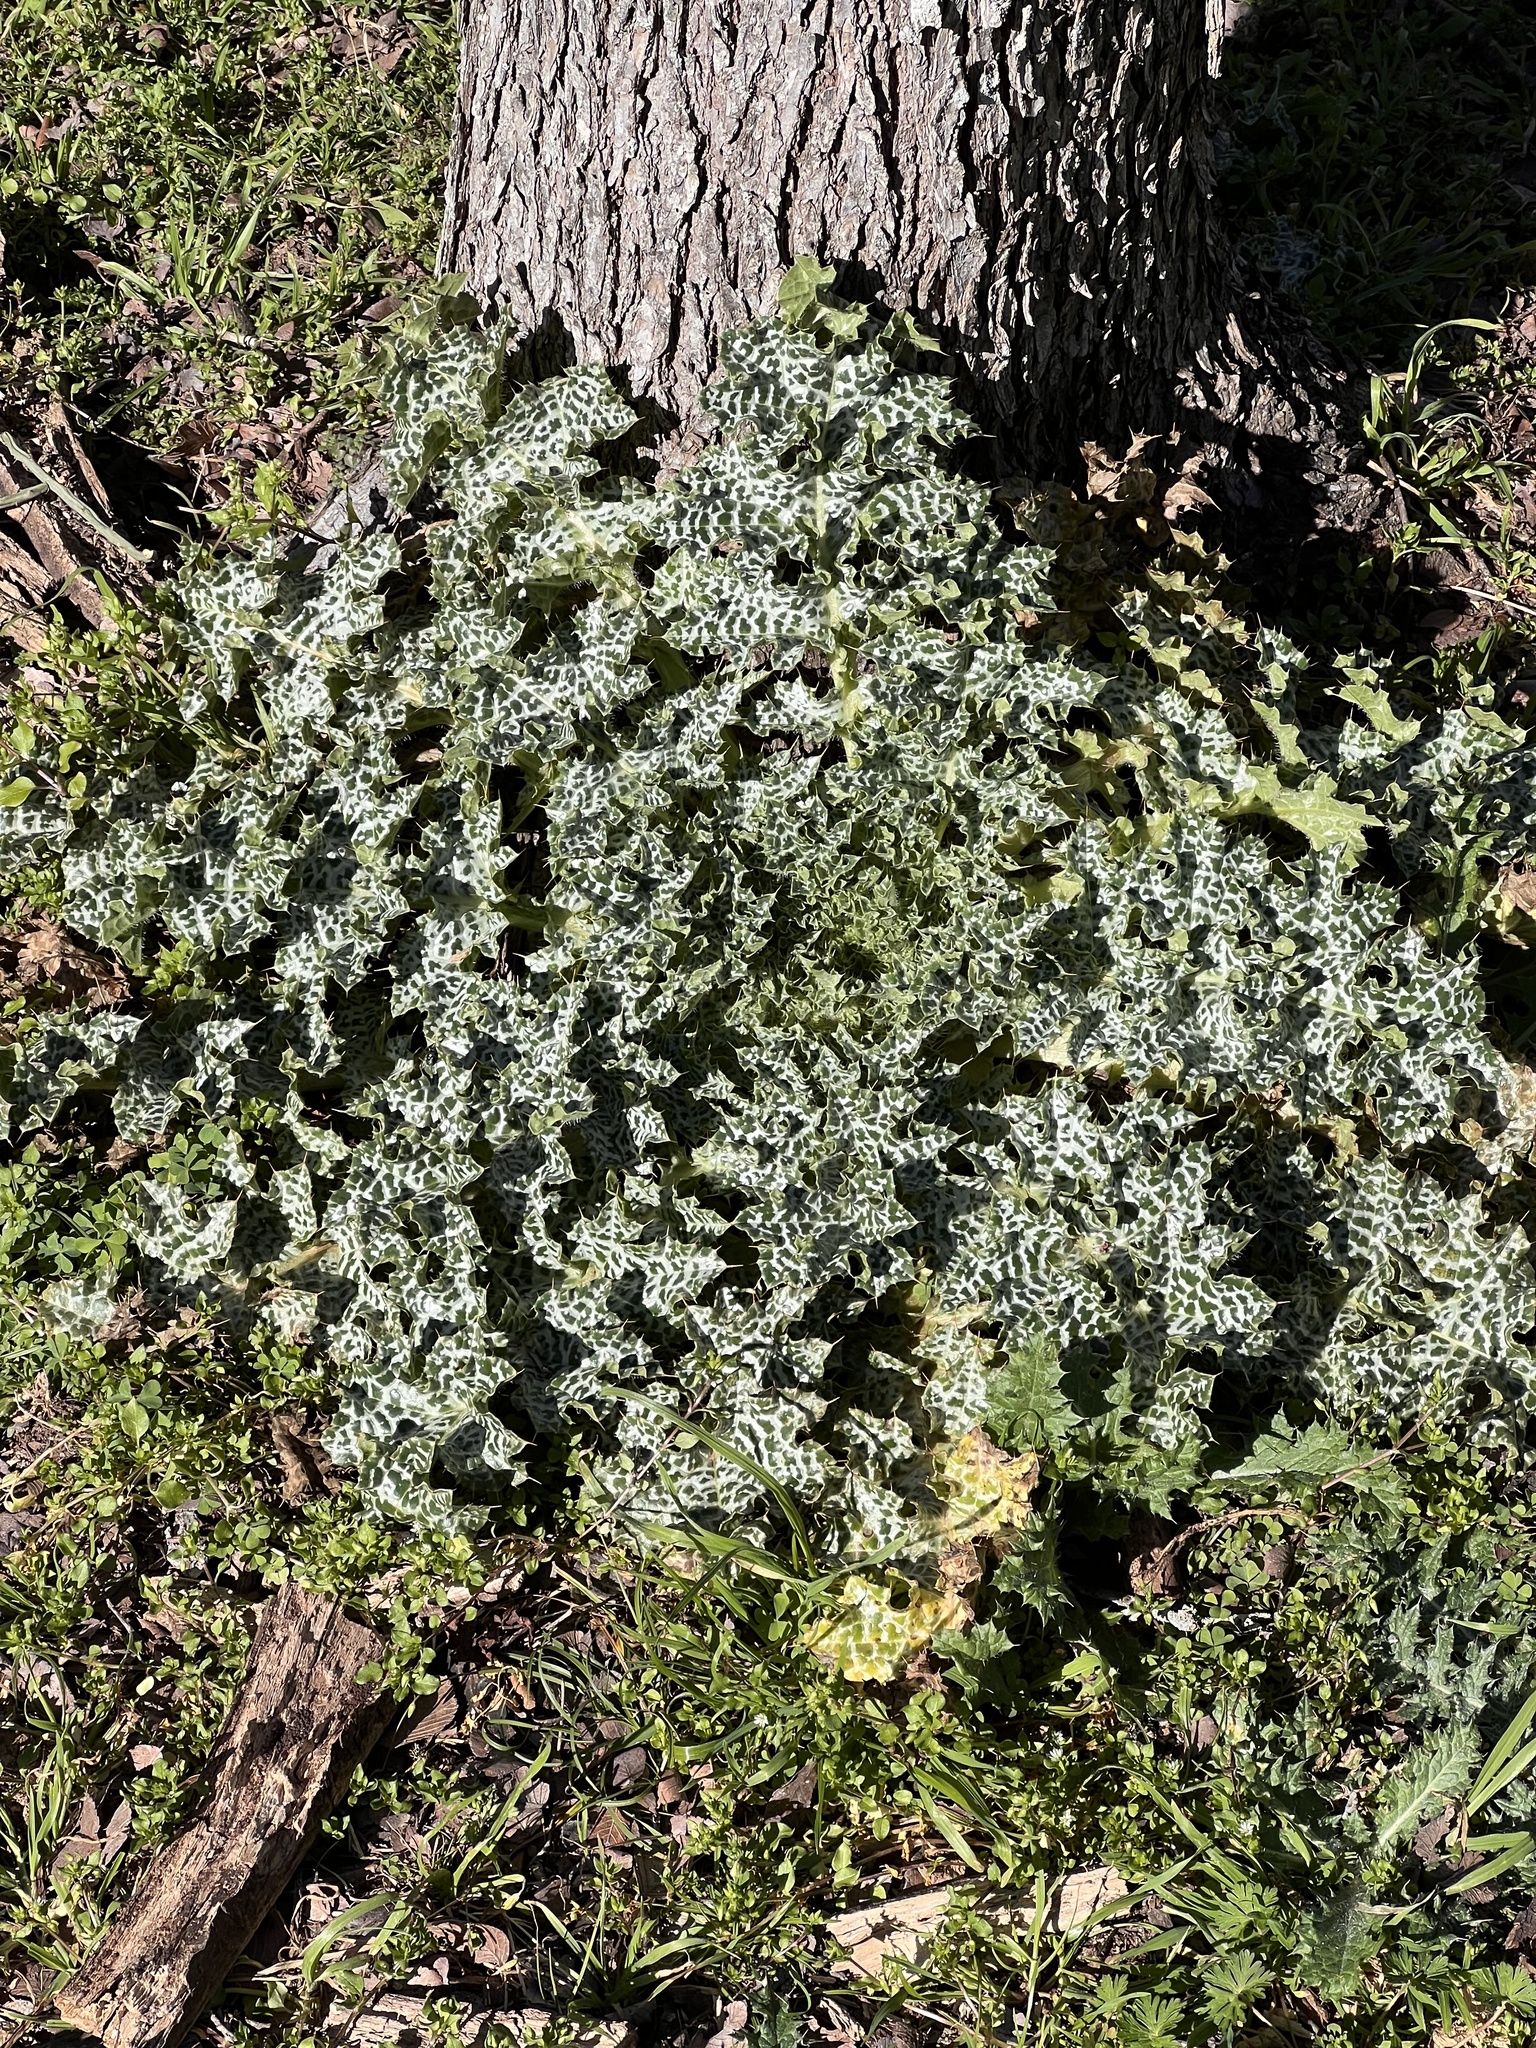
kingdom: Plantae
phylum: Tracheophyta
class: Magnoliopsida
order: Asterales
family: Asteraceae
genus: Silybum
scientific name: Silybum marianum
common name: Milk thistle
